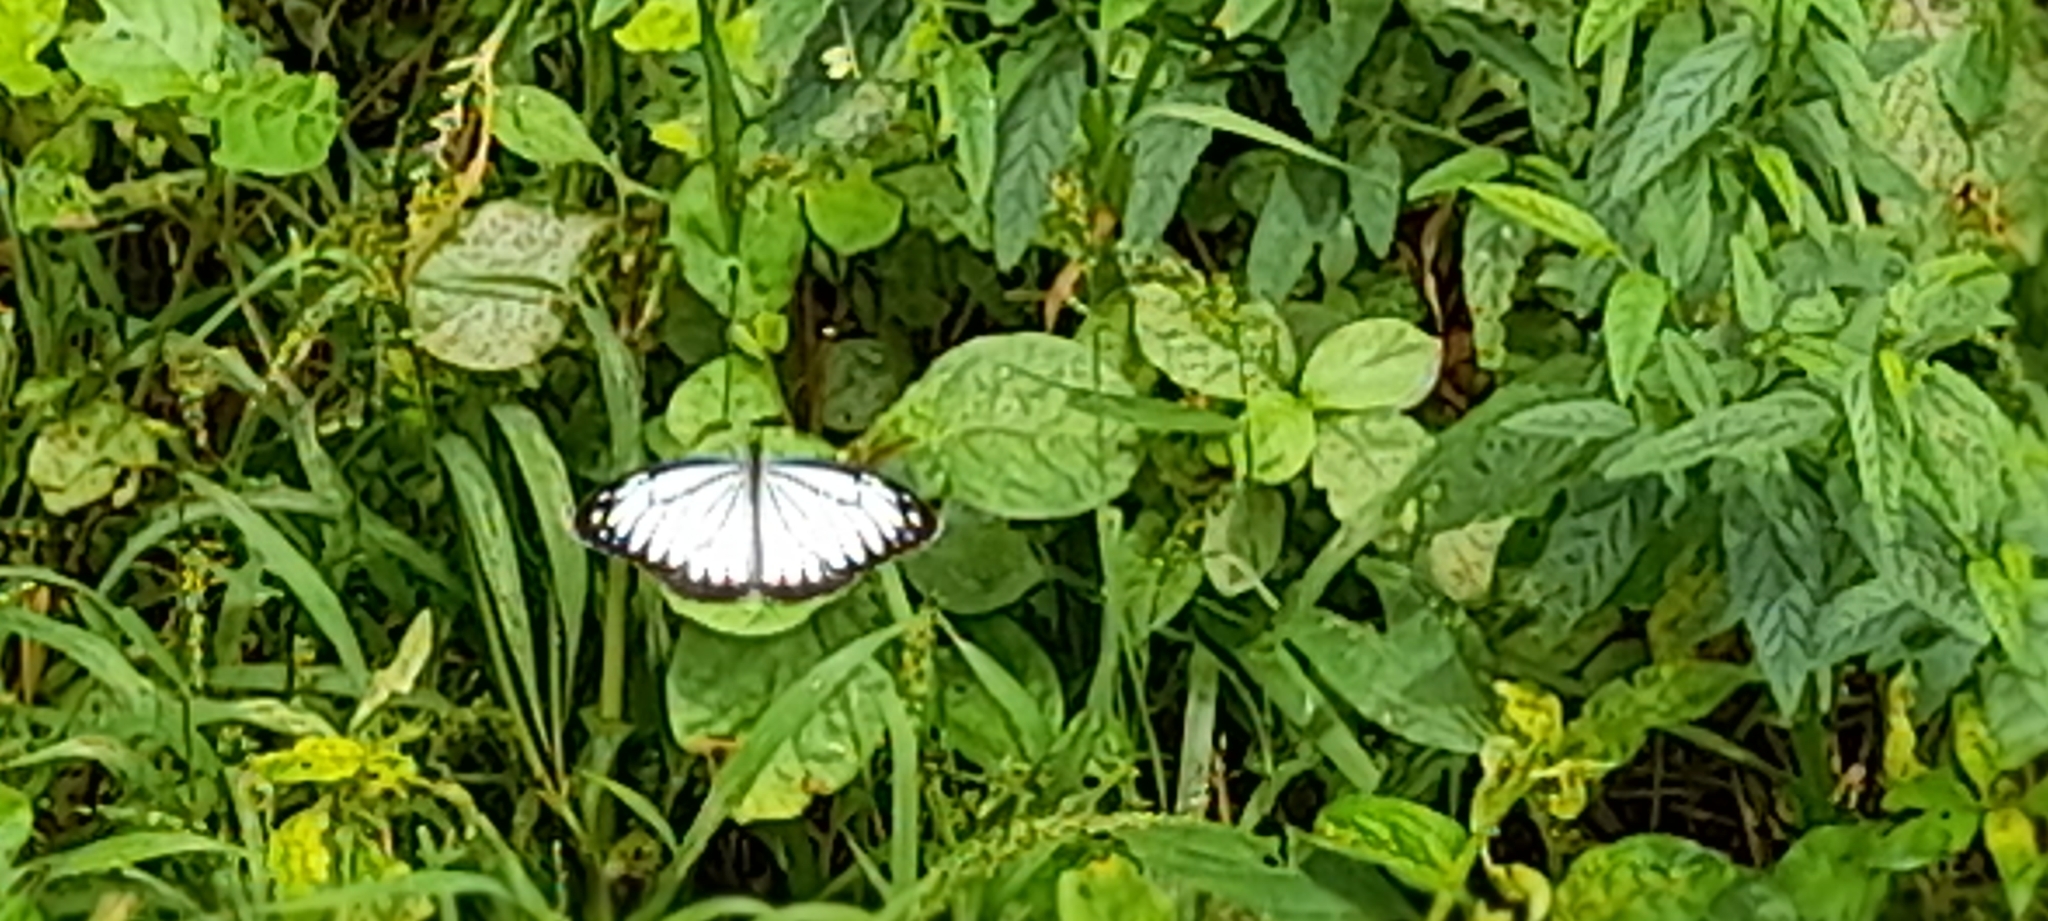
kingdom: Animalia
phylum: Arthropoda
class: Insecta
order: Lepidoptera
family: Pieridae
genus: Pareronia
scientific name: Pareronia hippia
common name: Indian wanderer
